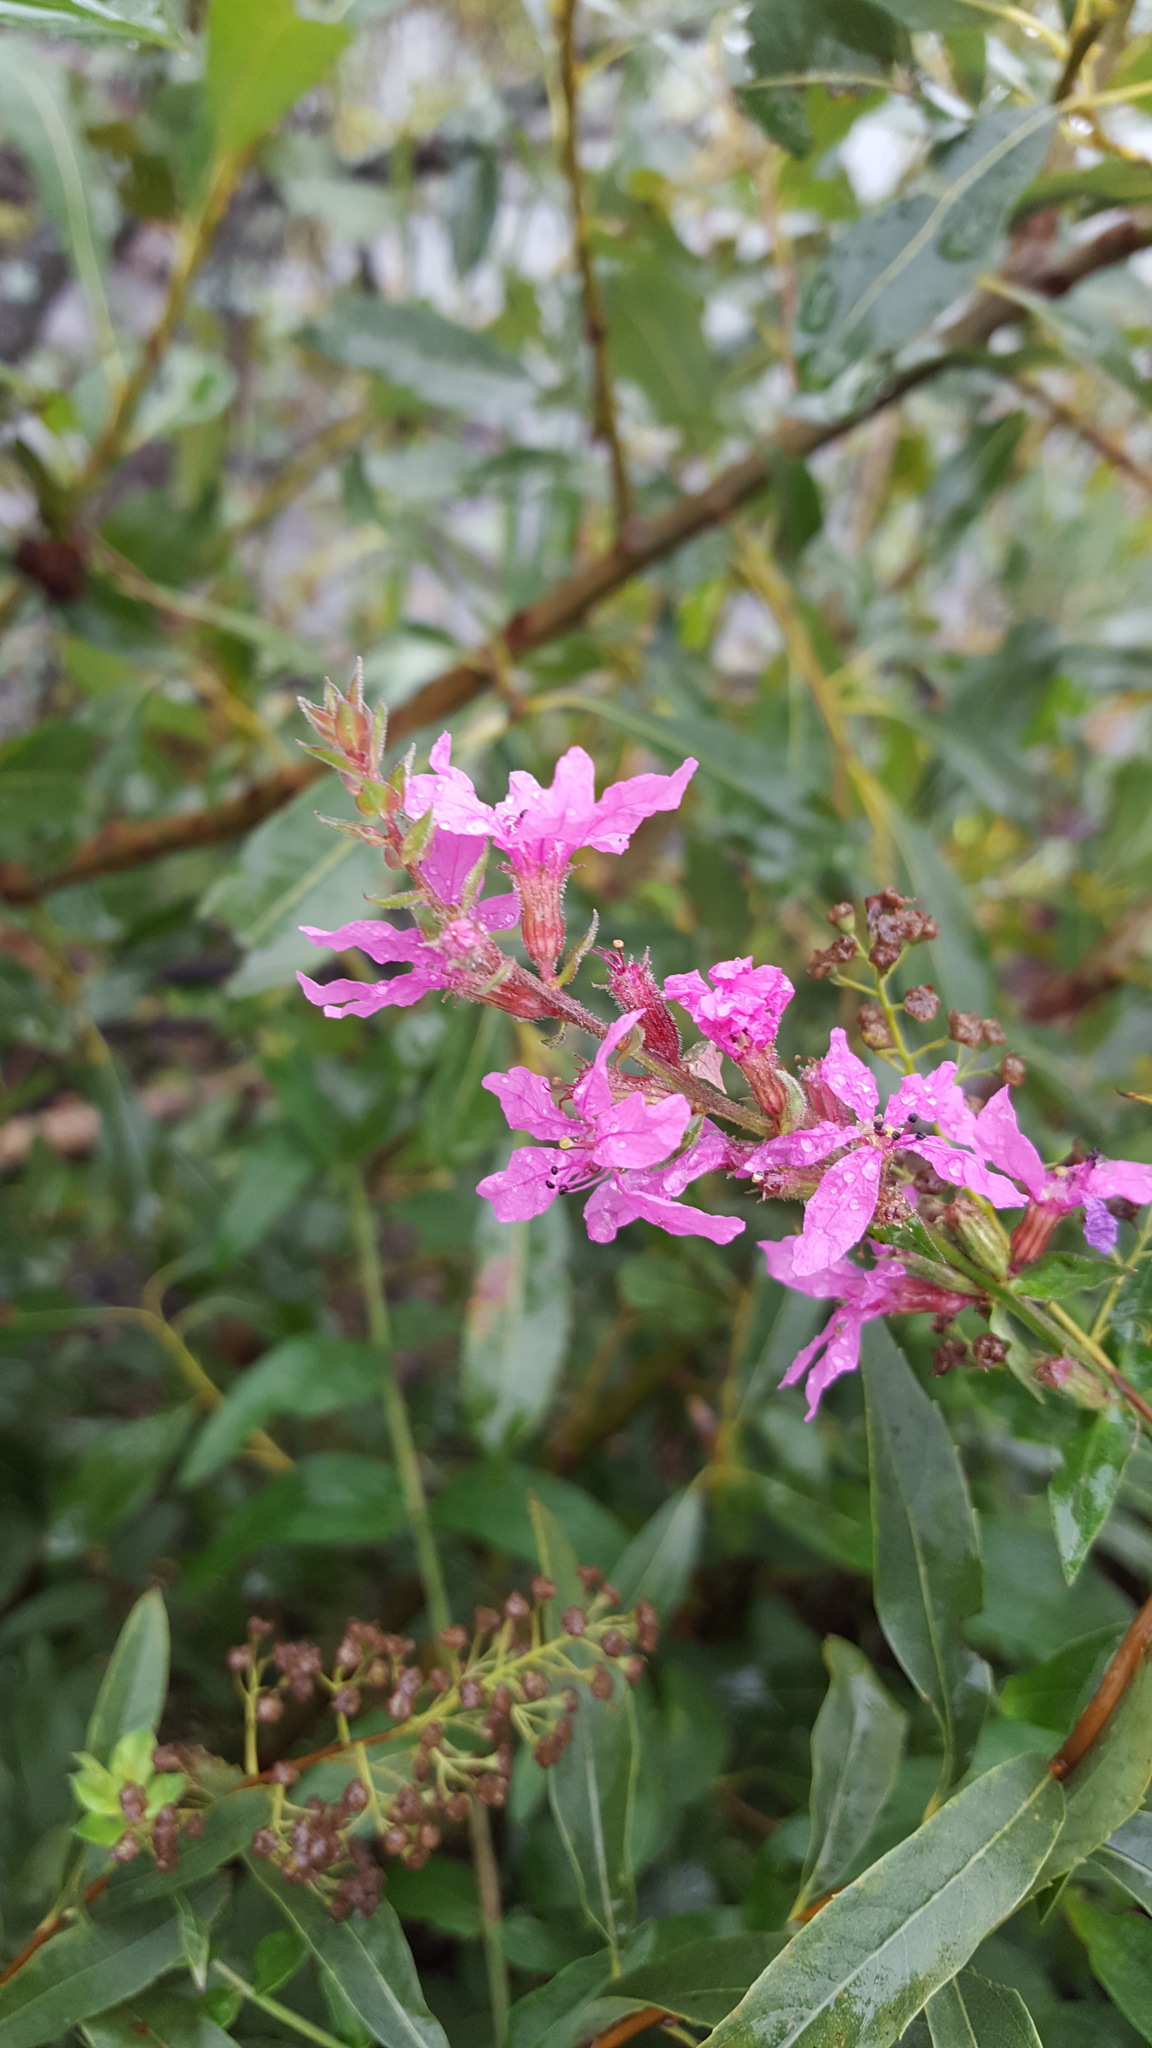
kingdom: Plantae
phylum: Tracheophyta
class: Magnoliopsida
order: Myrtales
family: Lythraceae
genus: Lythrum
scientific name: Lythrum salicaria
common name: Purple loosestrife
